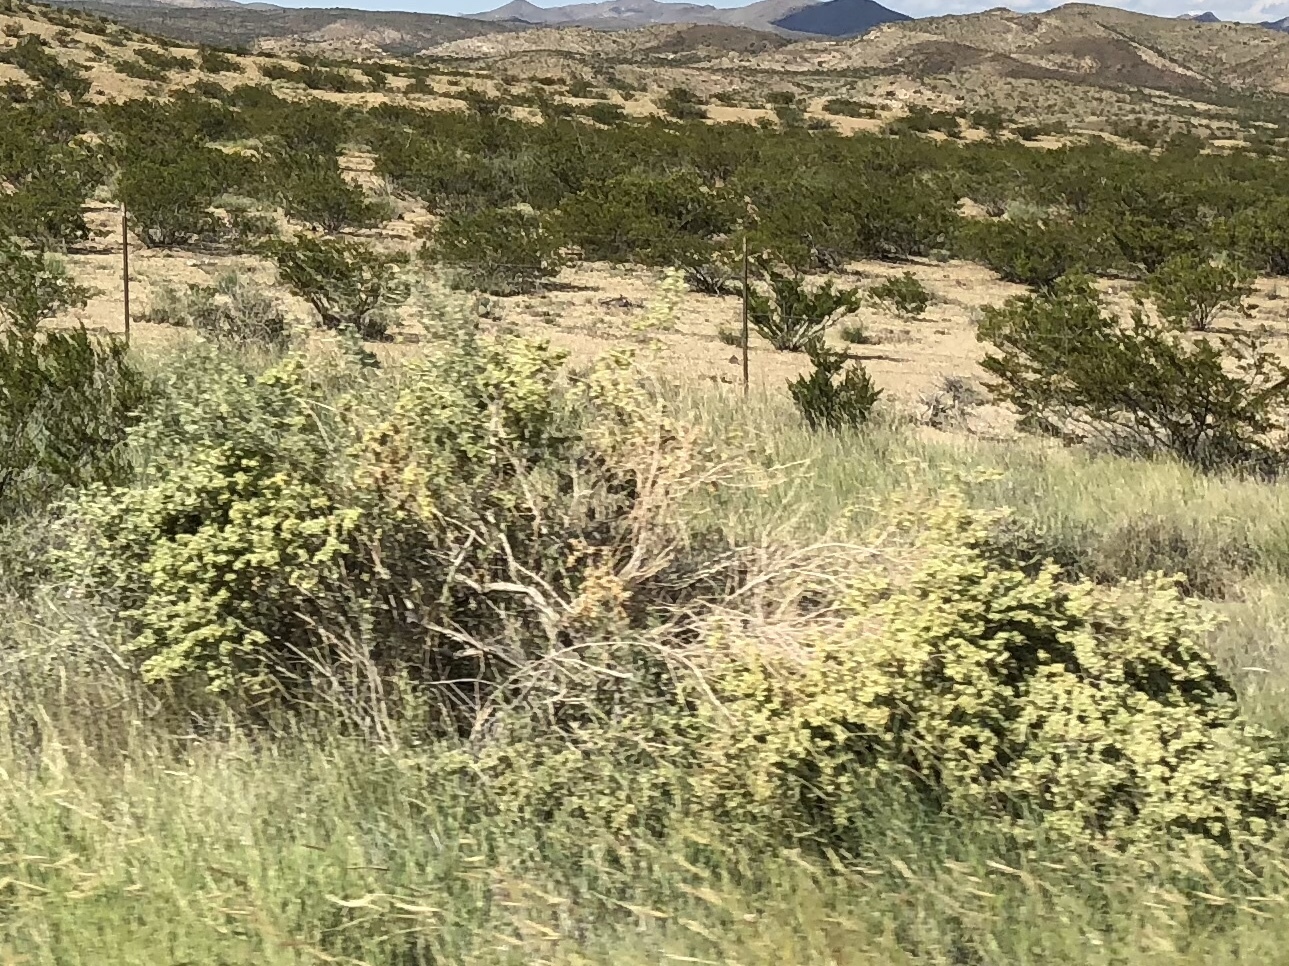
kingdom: Plantae
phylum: Tracheophyta
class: Magnoliopsida
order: Caryophyllales
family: Amaranthaceae
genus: Atriplex
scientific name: Atriplex canescens
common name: Four-wing saltbush
